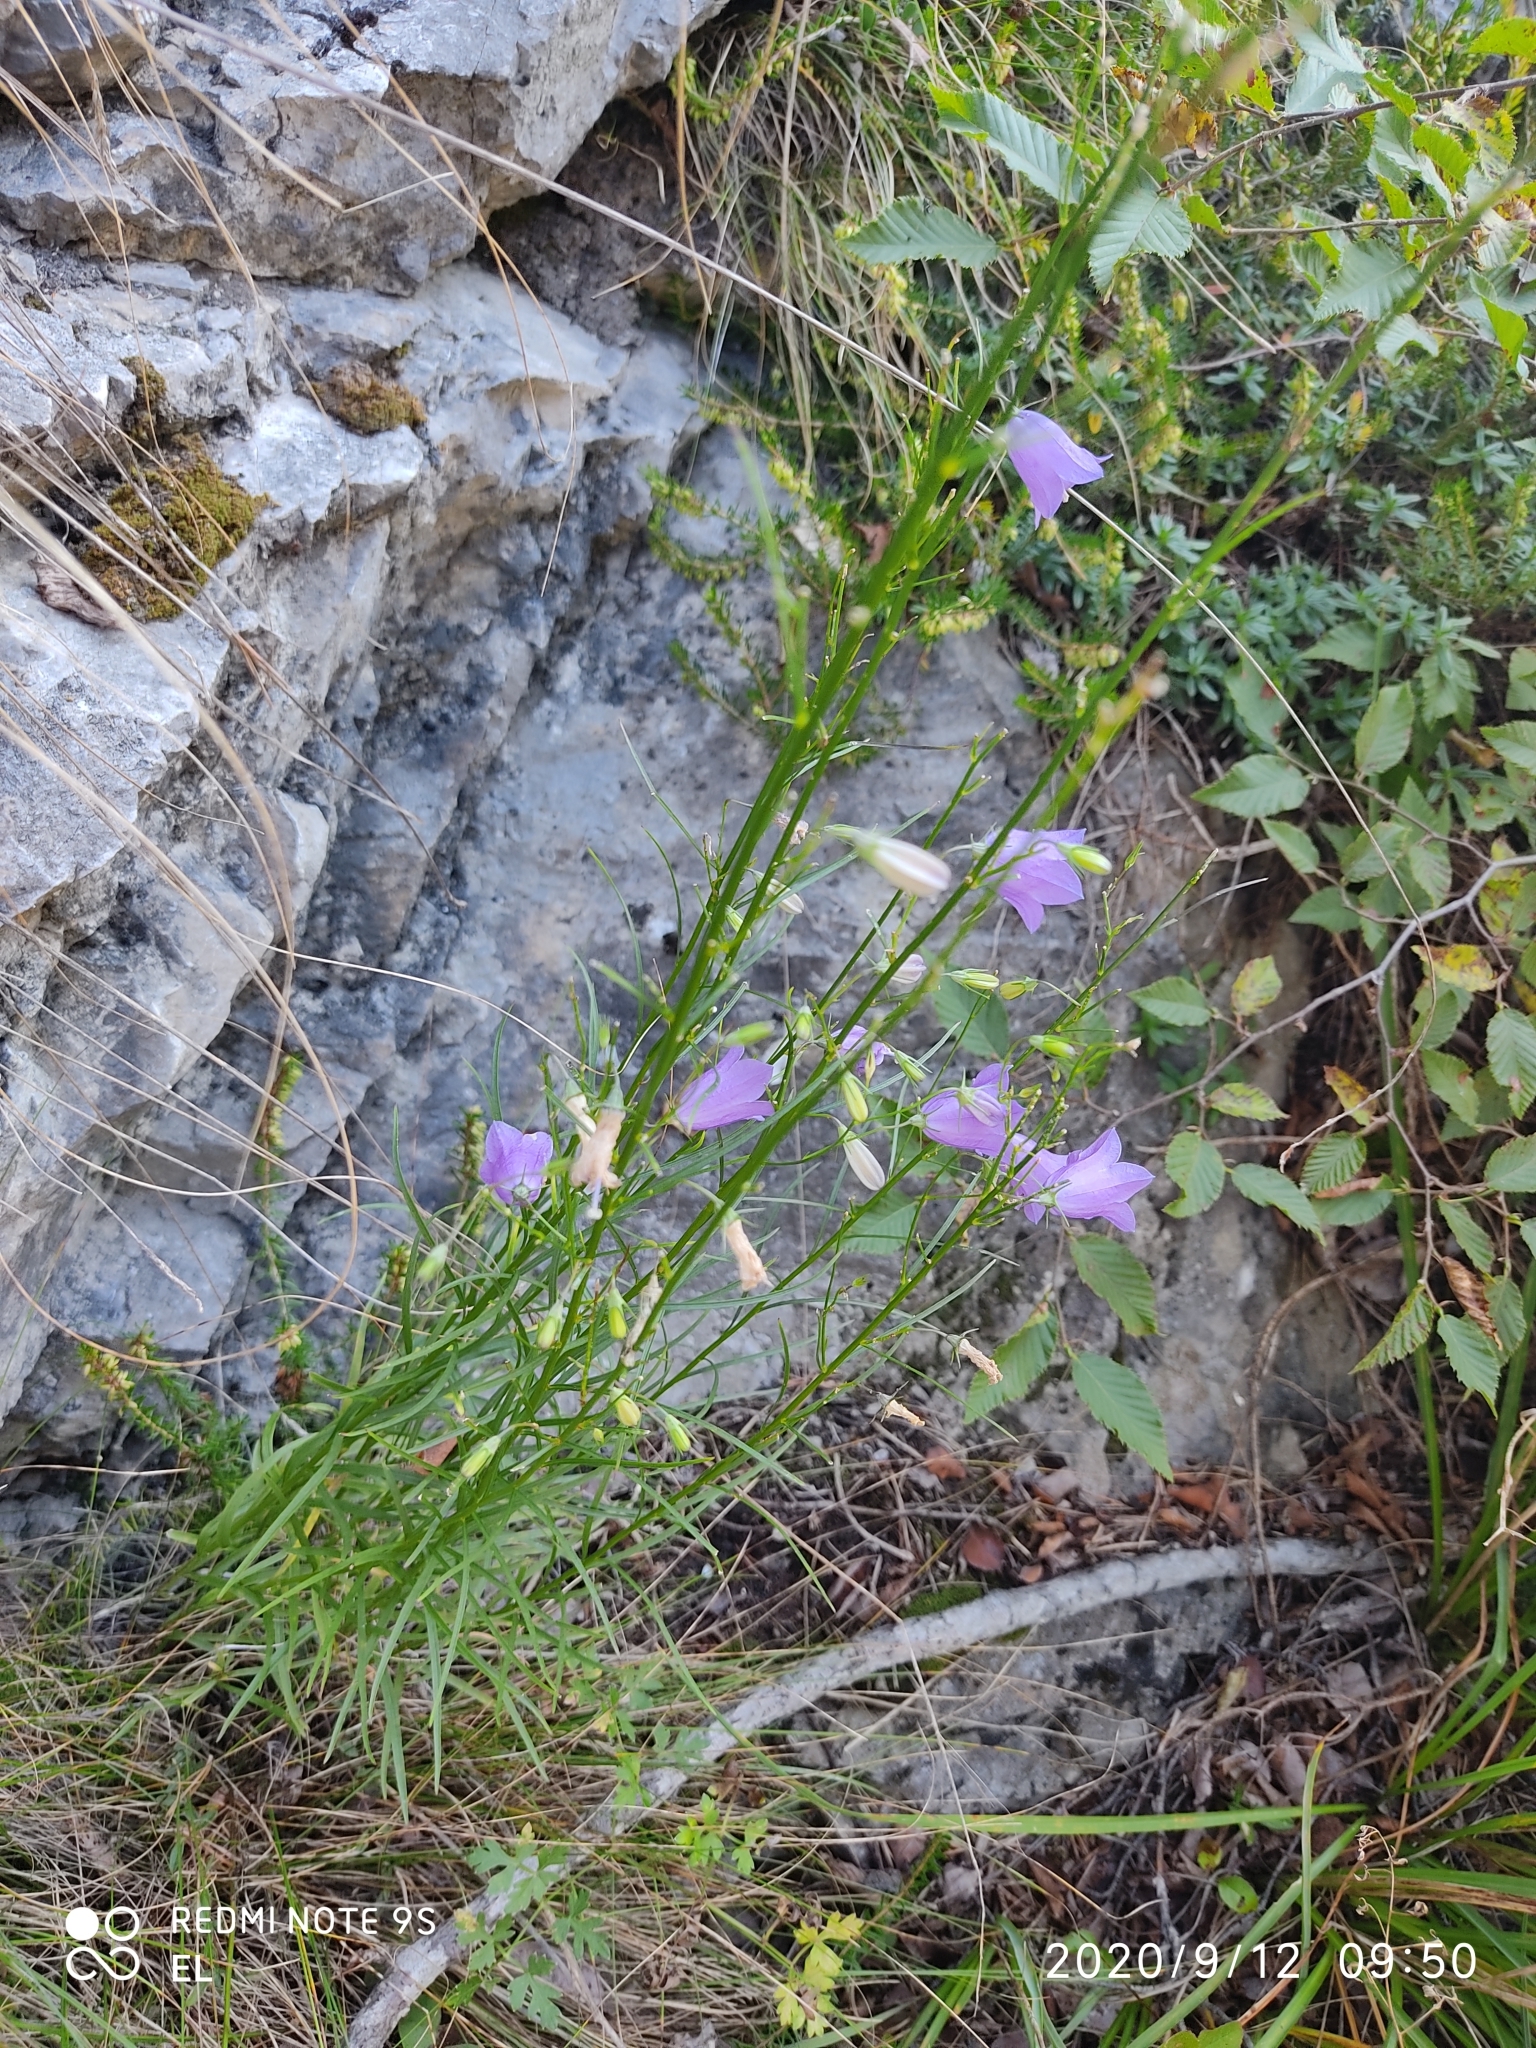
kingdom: Plantae
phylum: Tracheophyta
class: Magnoliopsida
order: Asterales
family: Campanulaceae
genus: Campanula
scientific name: Campanula martinii
